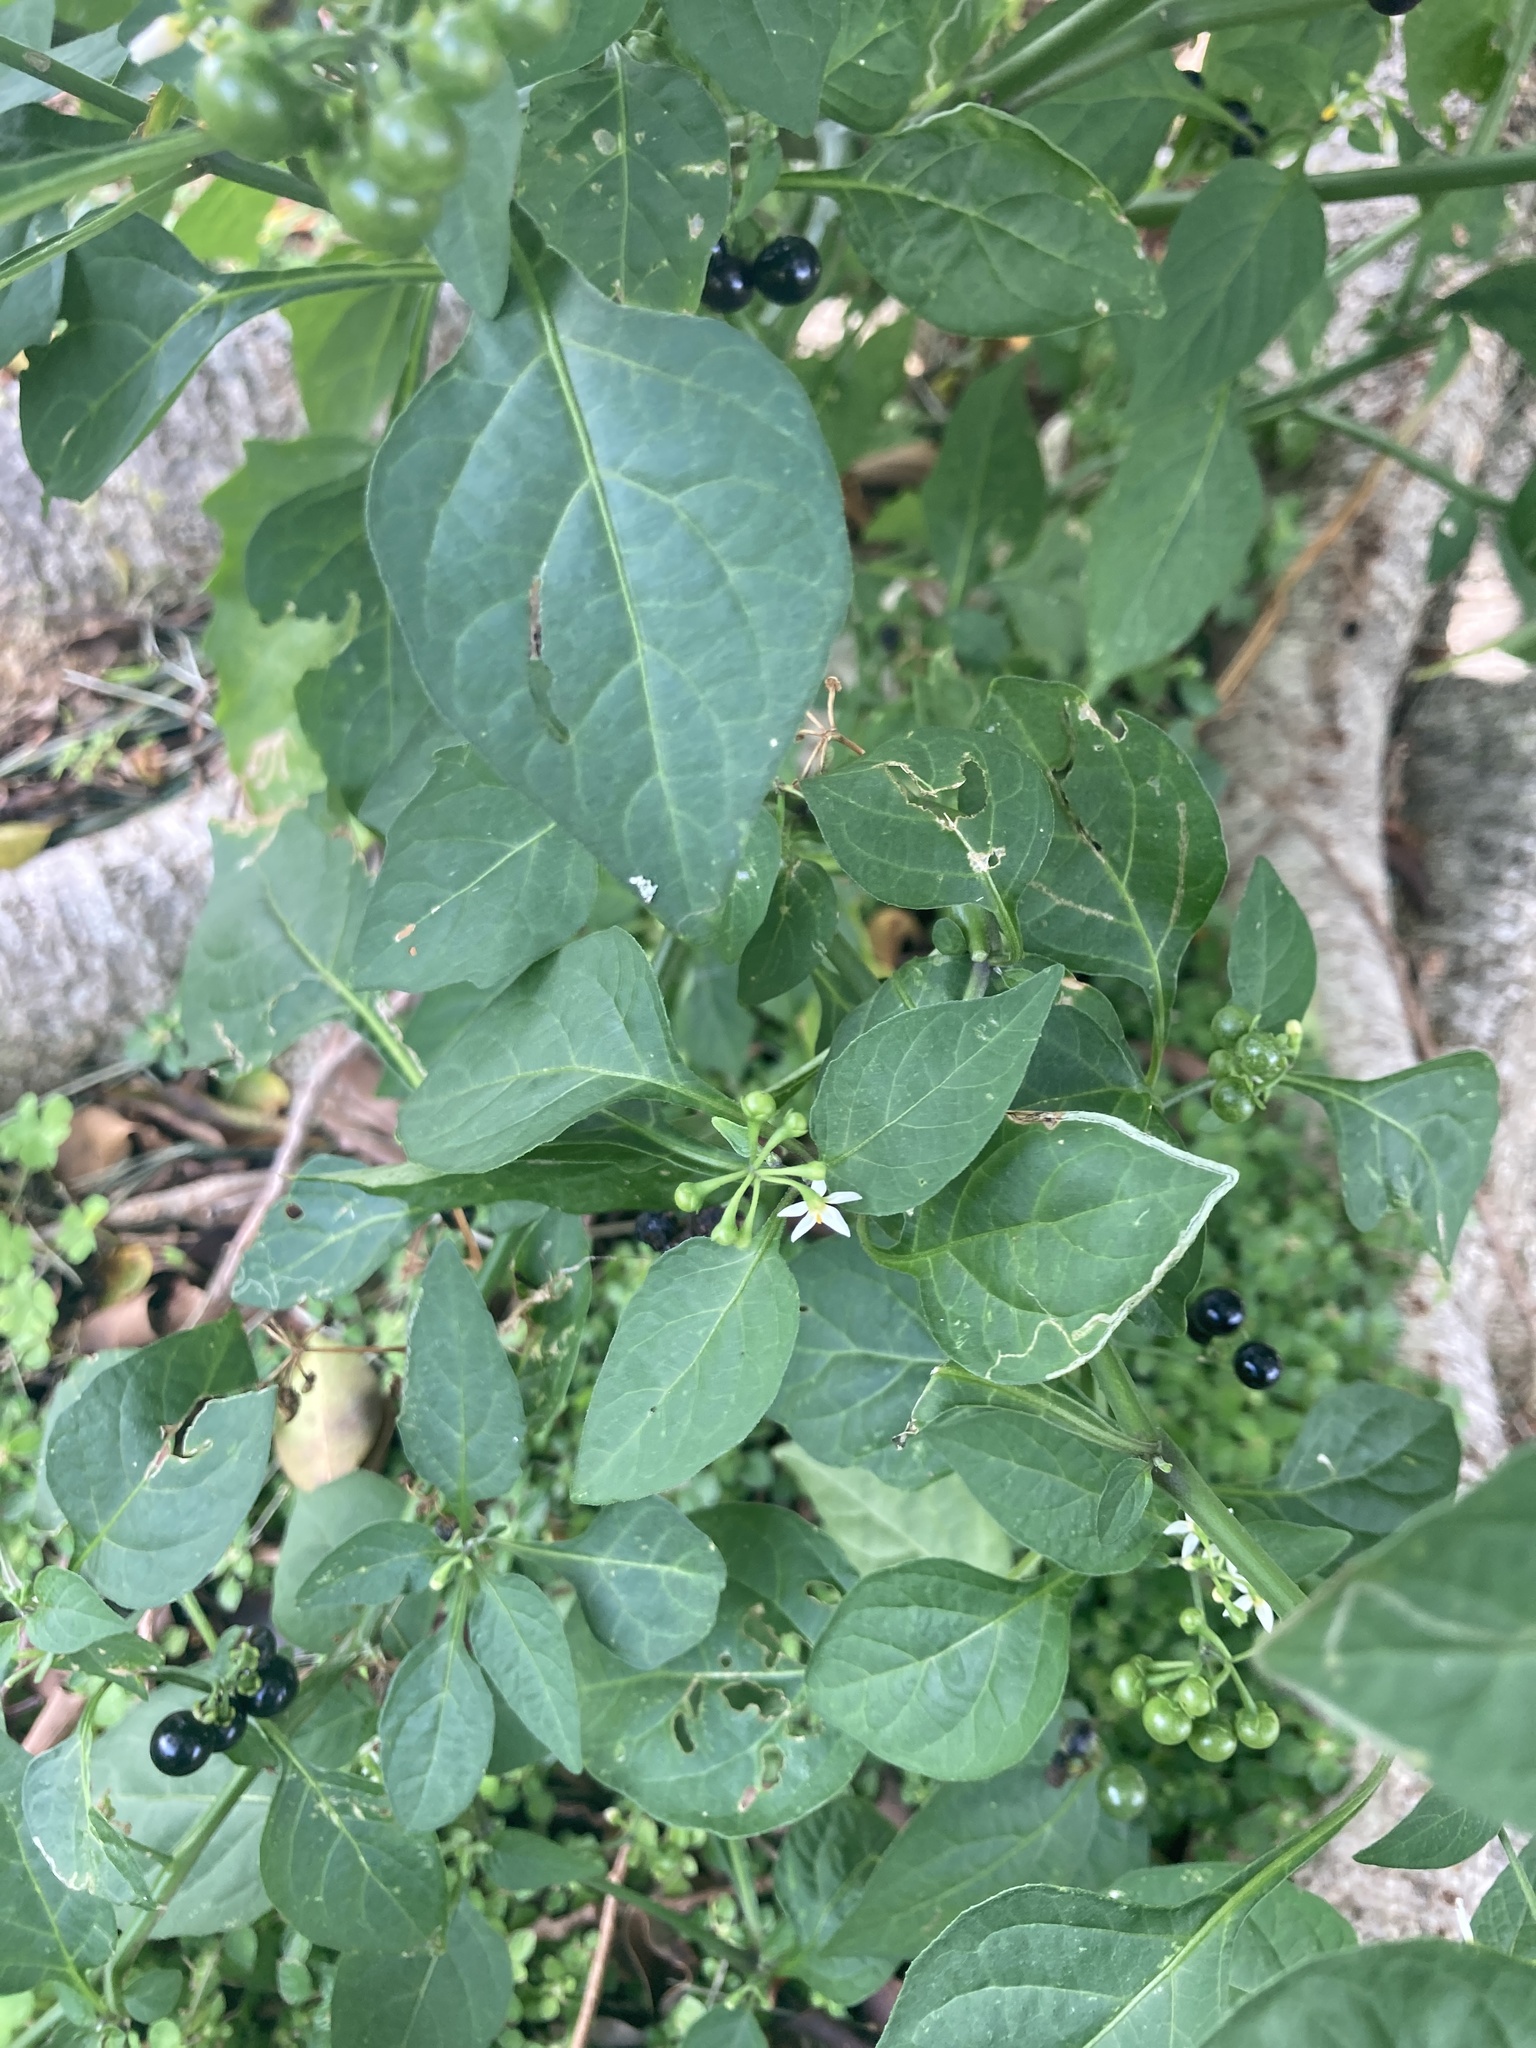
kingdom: Plantae
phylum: Tracheophyta
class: Magnoliopsida
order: Solanales
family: Solanaceae
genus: Solanum
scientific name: Solanum americanum
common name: American black nightshade
